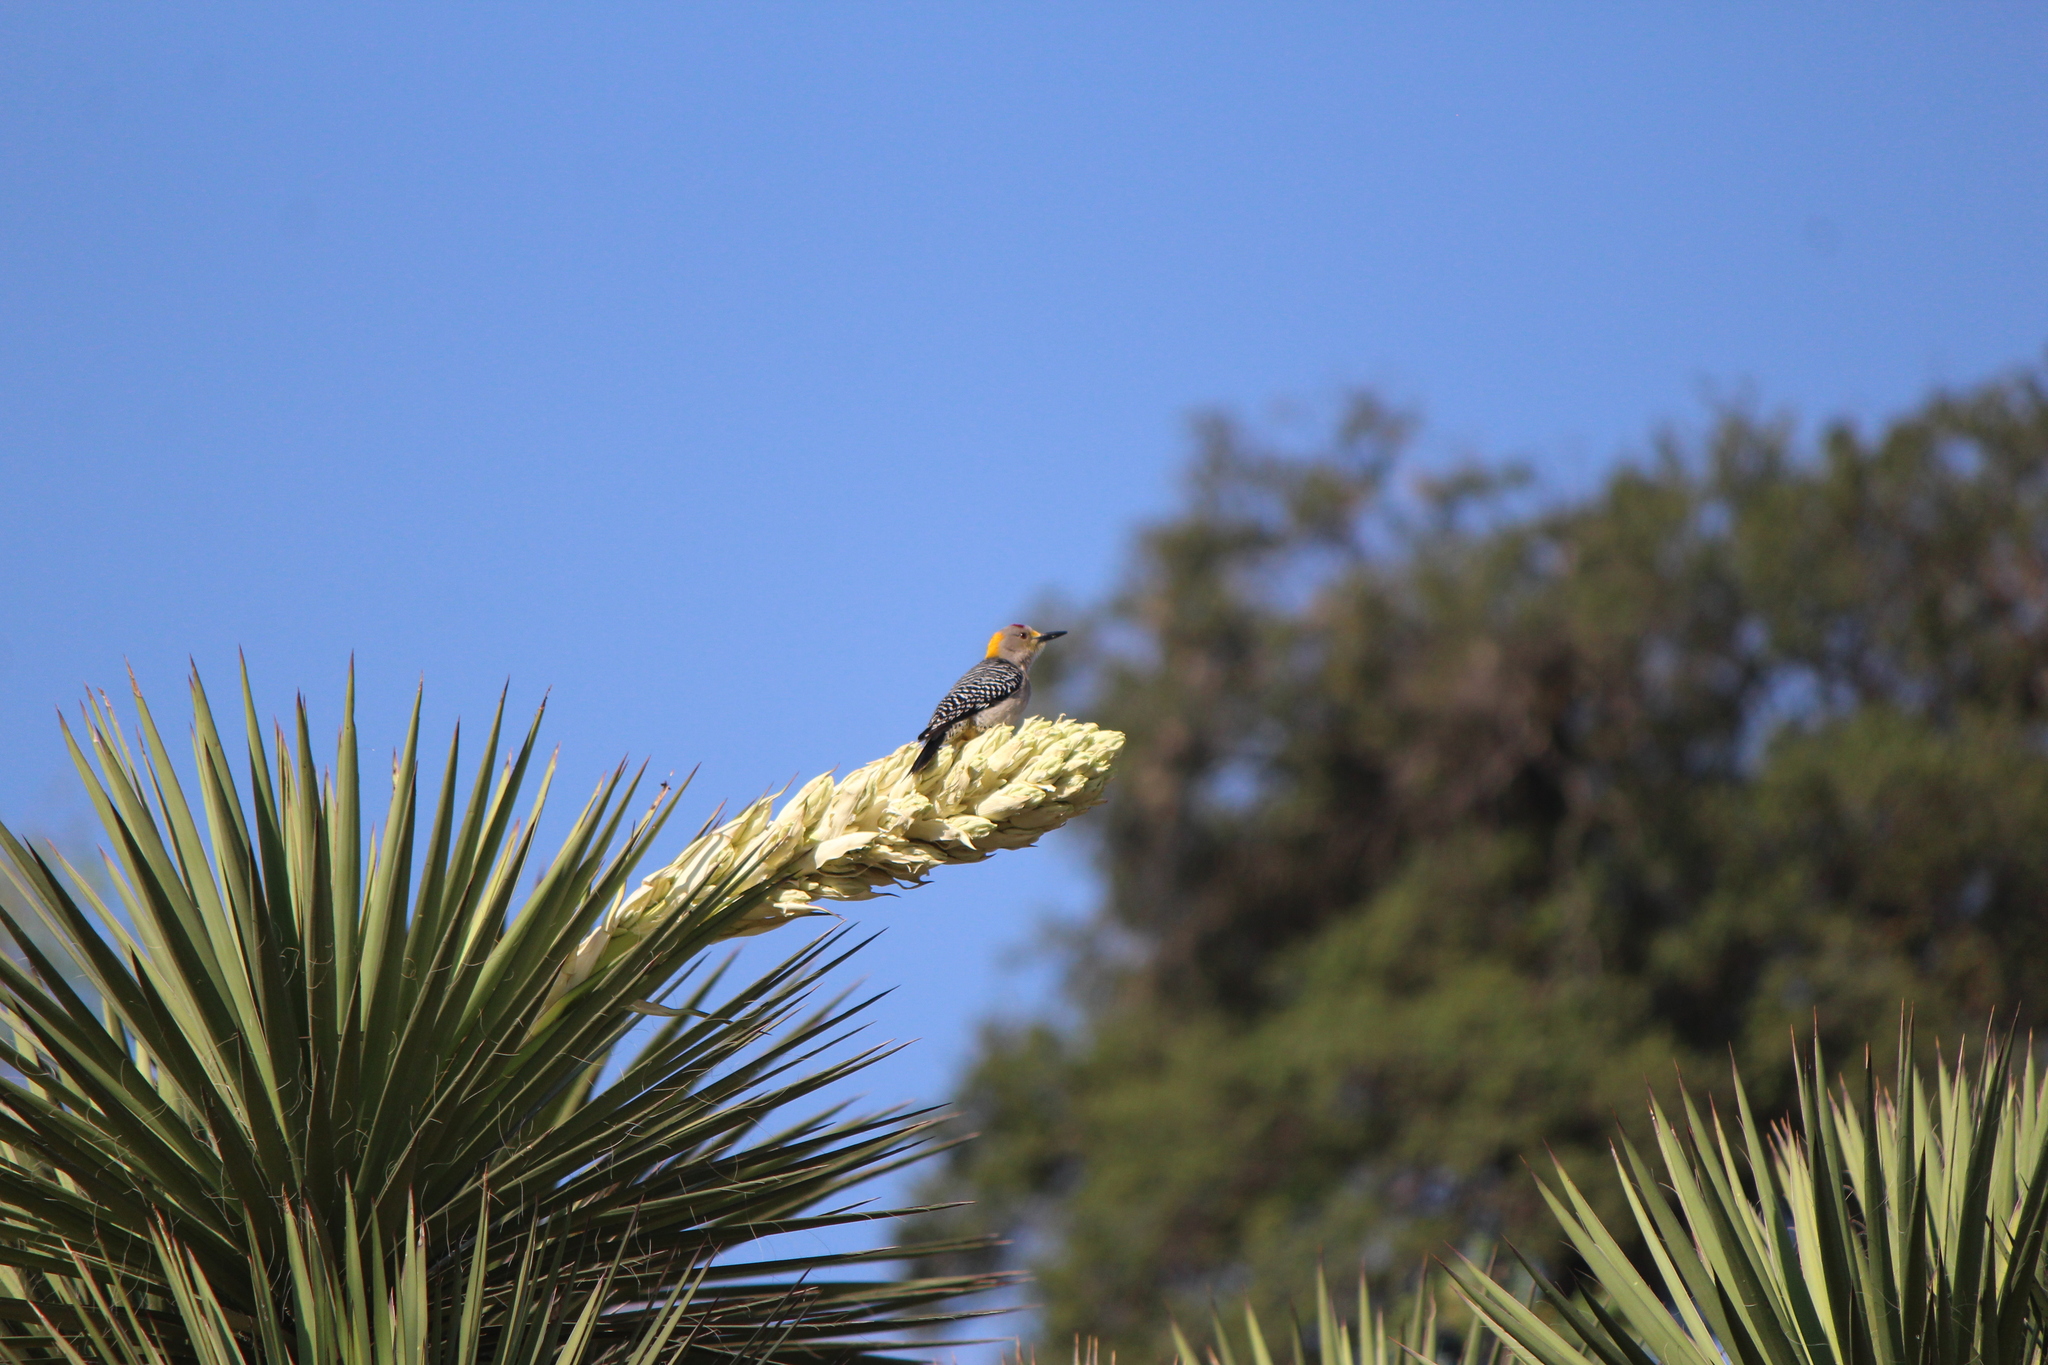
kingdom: Animalia
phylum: Chordata
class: Aves
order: Piciformes
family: Picidae
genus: Melanerpes
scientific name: Melanerpes aurifrons
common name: Golden-fronted woodpecker
